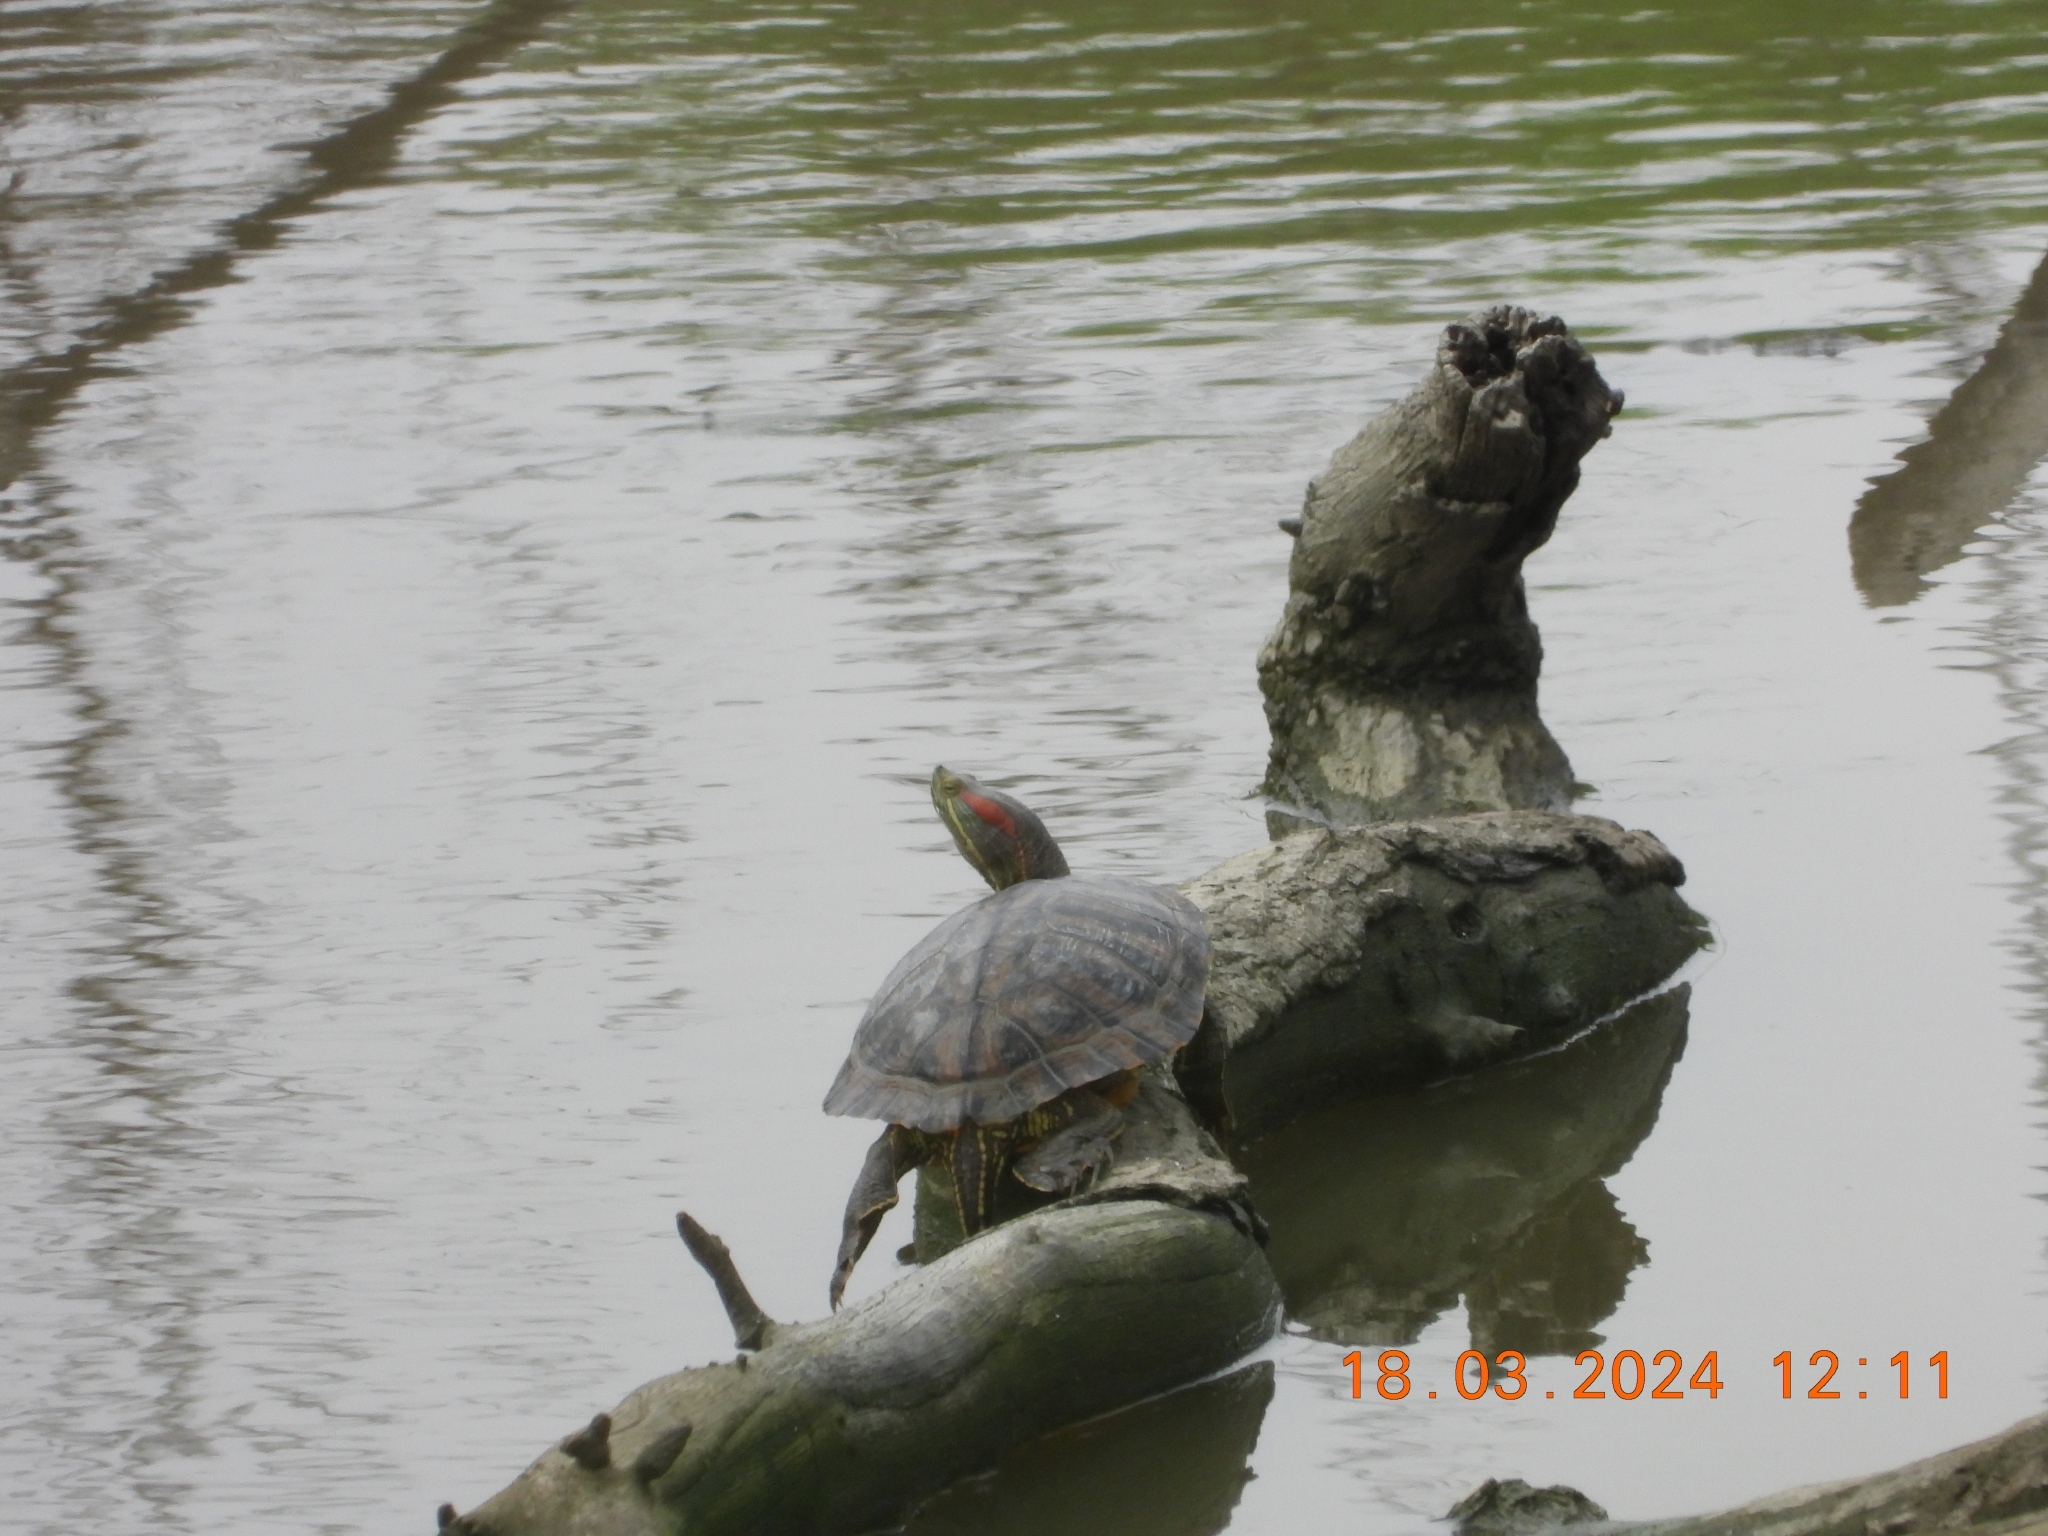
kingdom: Animalia
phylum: Chordata
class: Testudines
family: Emydidae
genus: Trachemys
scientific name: Trachemys scripta
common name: Slider
